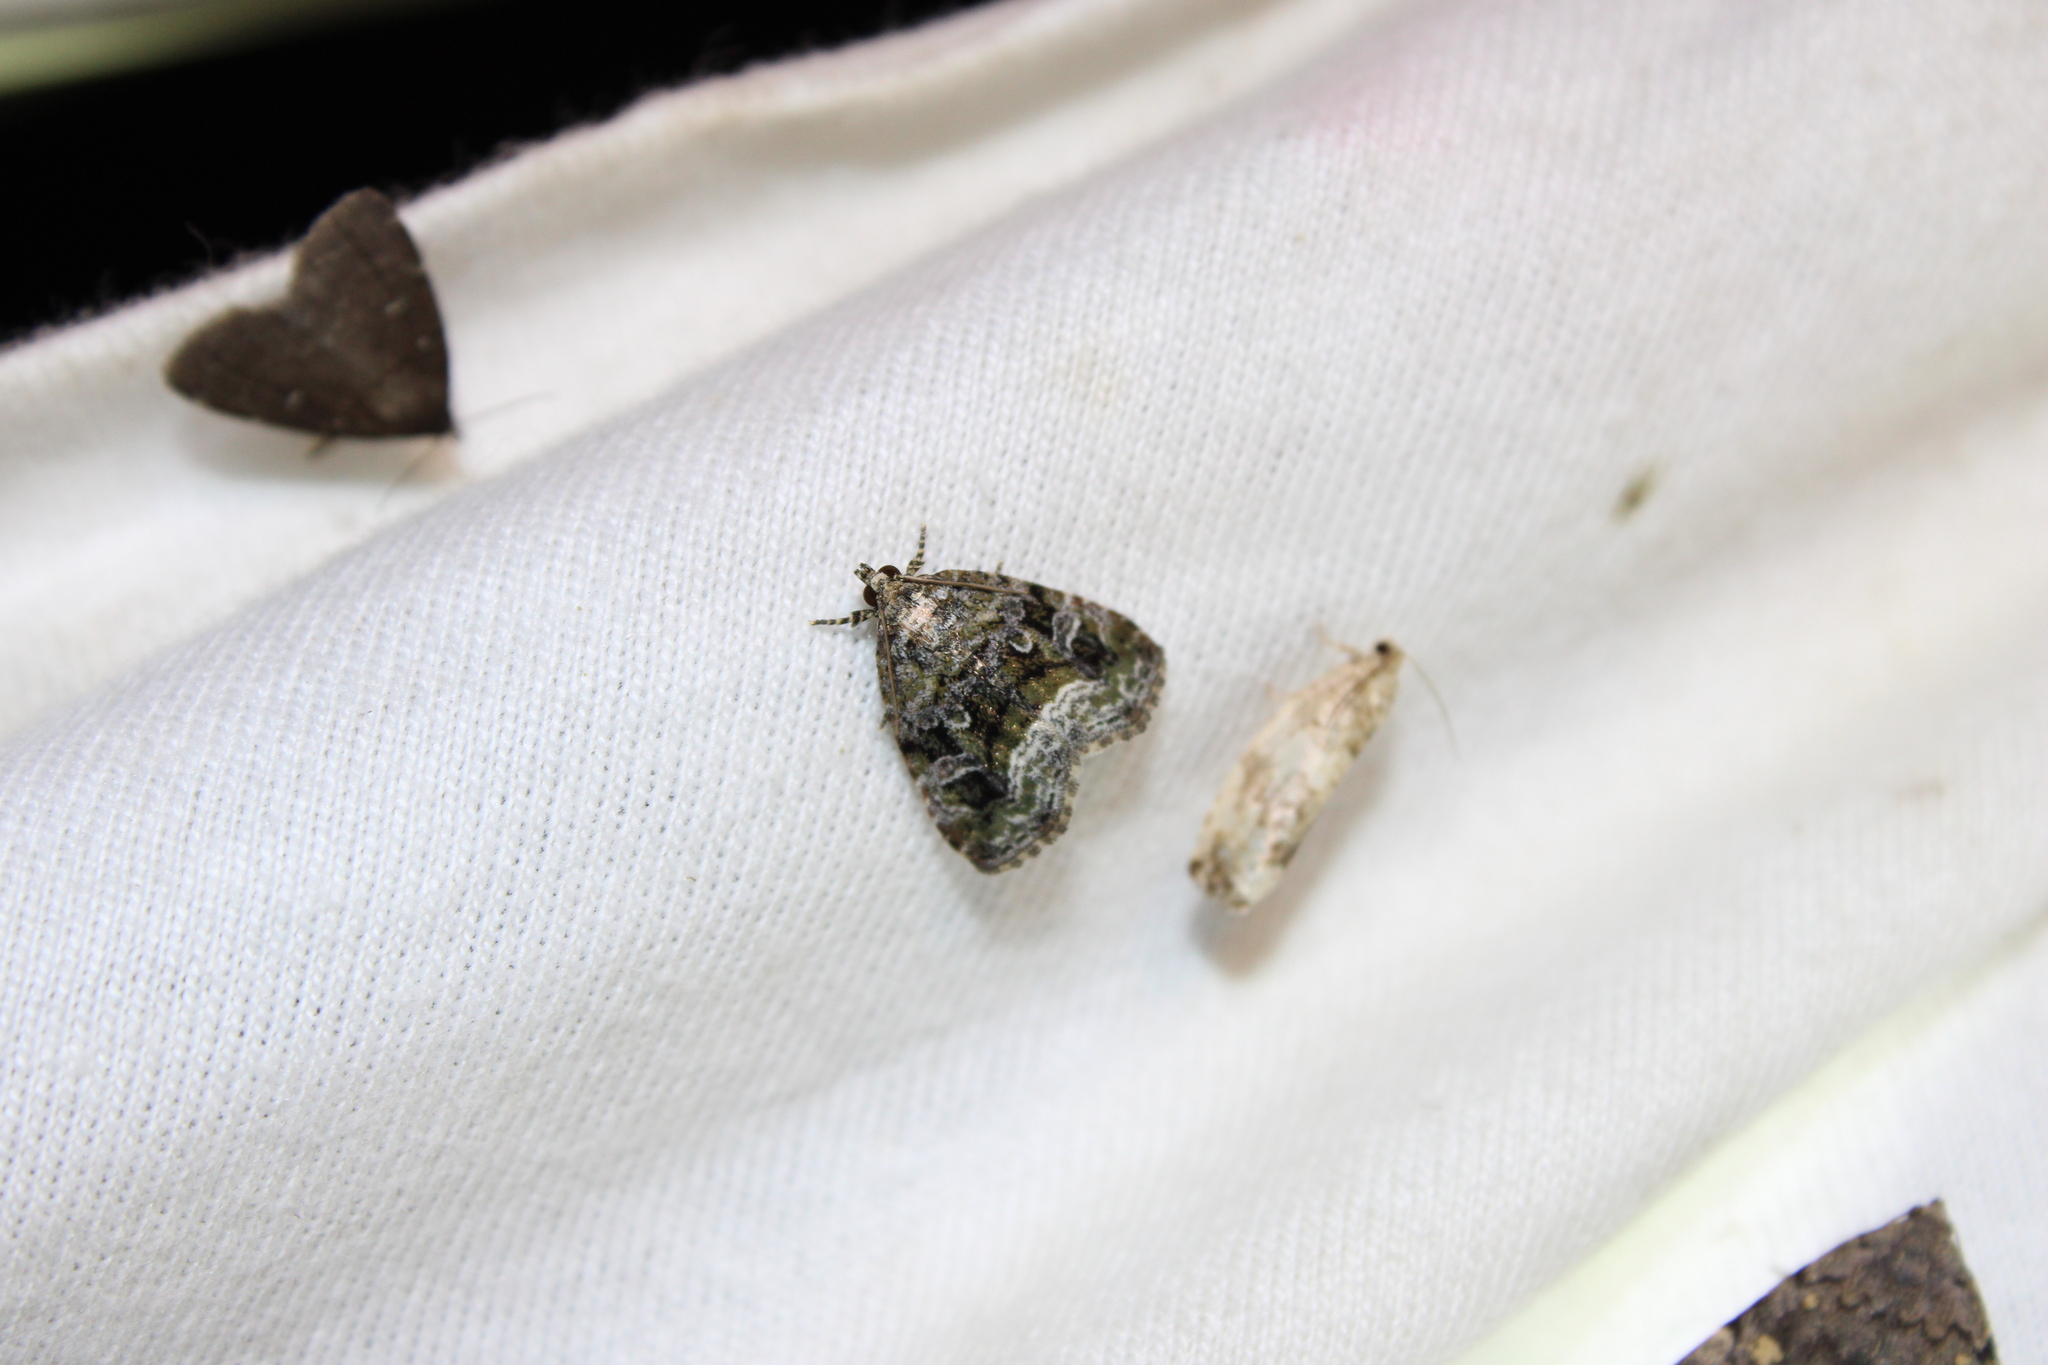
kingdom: Animalia
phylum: Arthropoda
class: Insecta
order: Lepidoptera
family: Noctuidae
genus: Protodeltote
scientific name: Protodeltote muscosula
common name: Large mossy glyph
